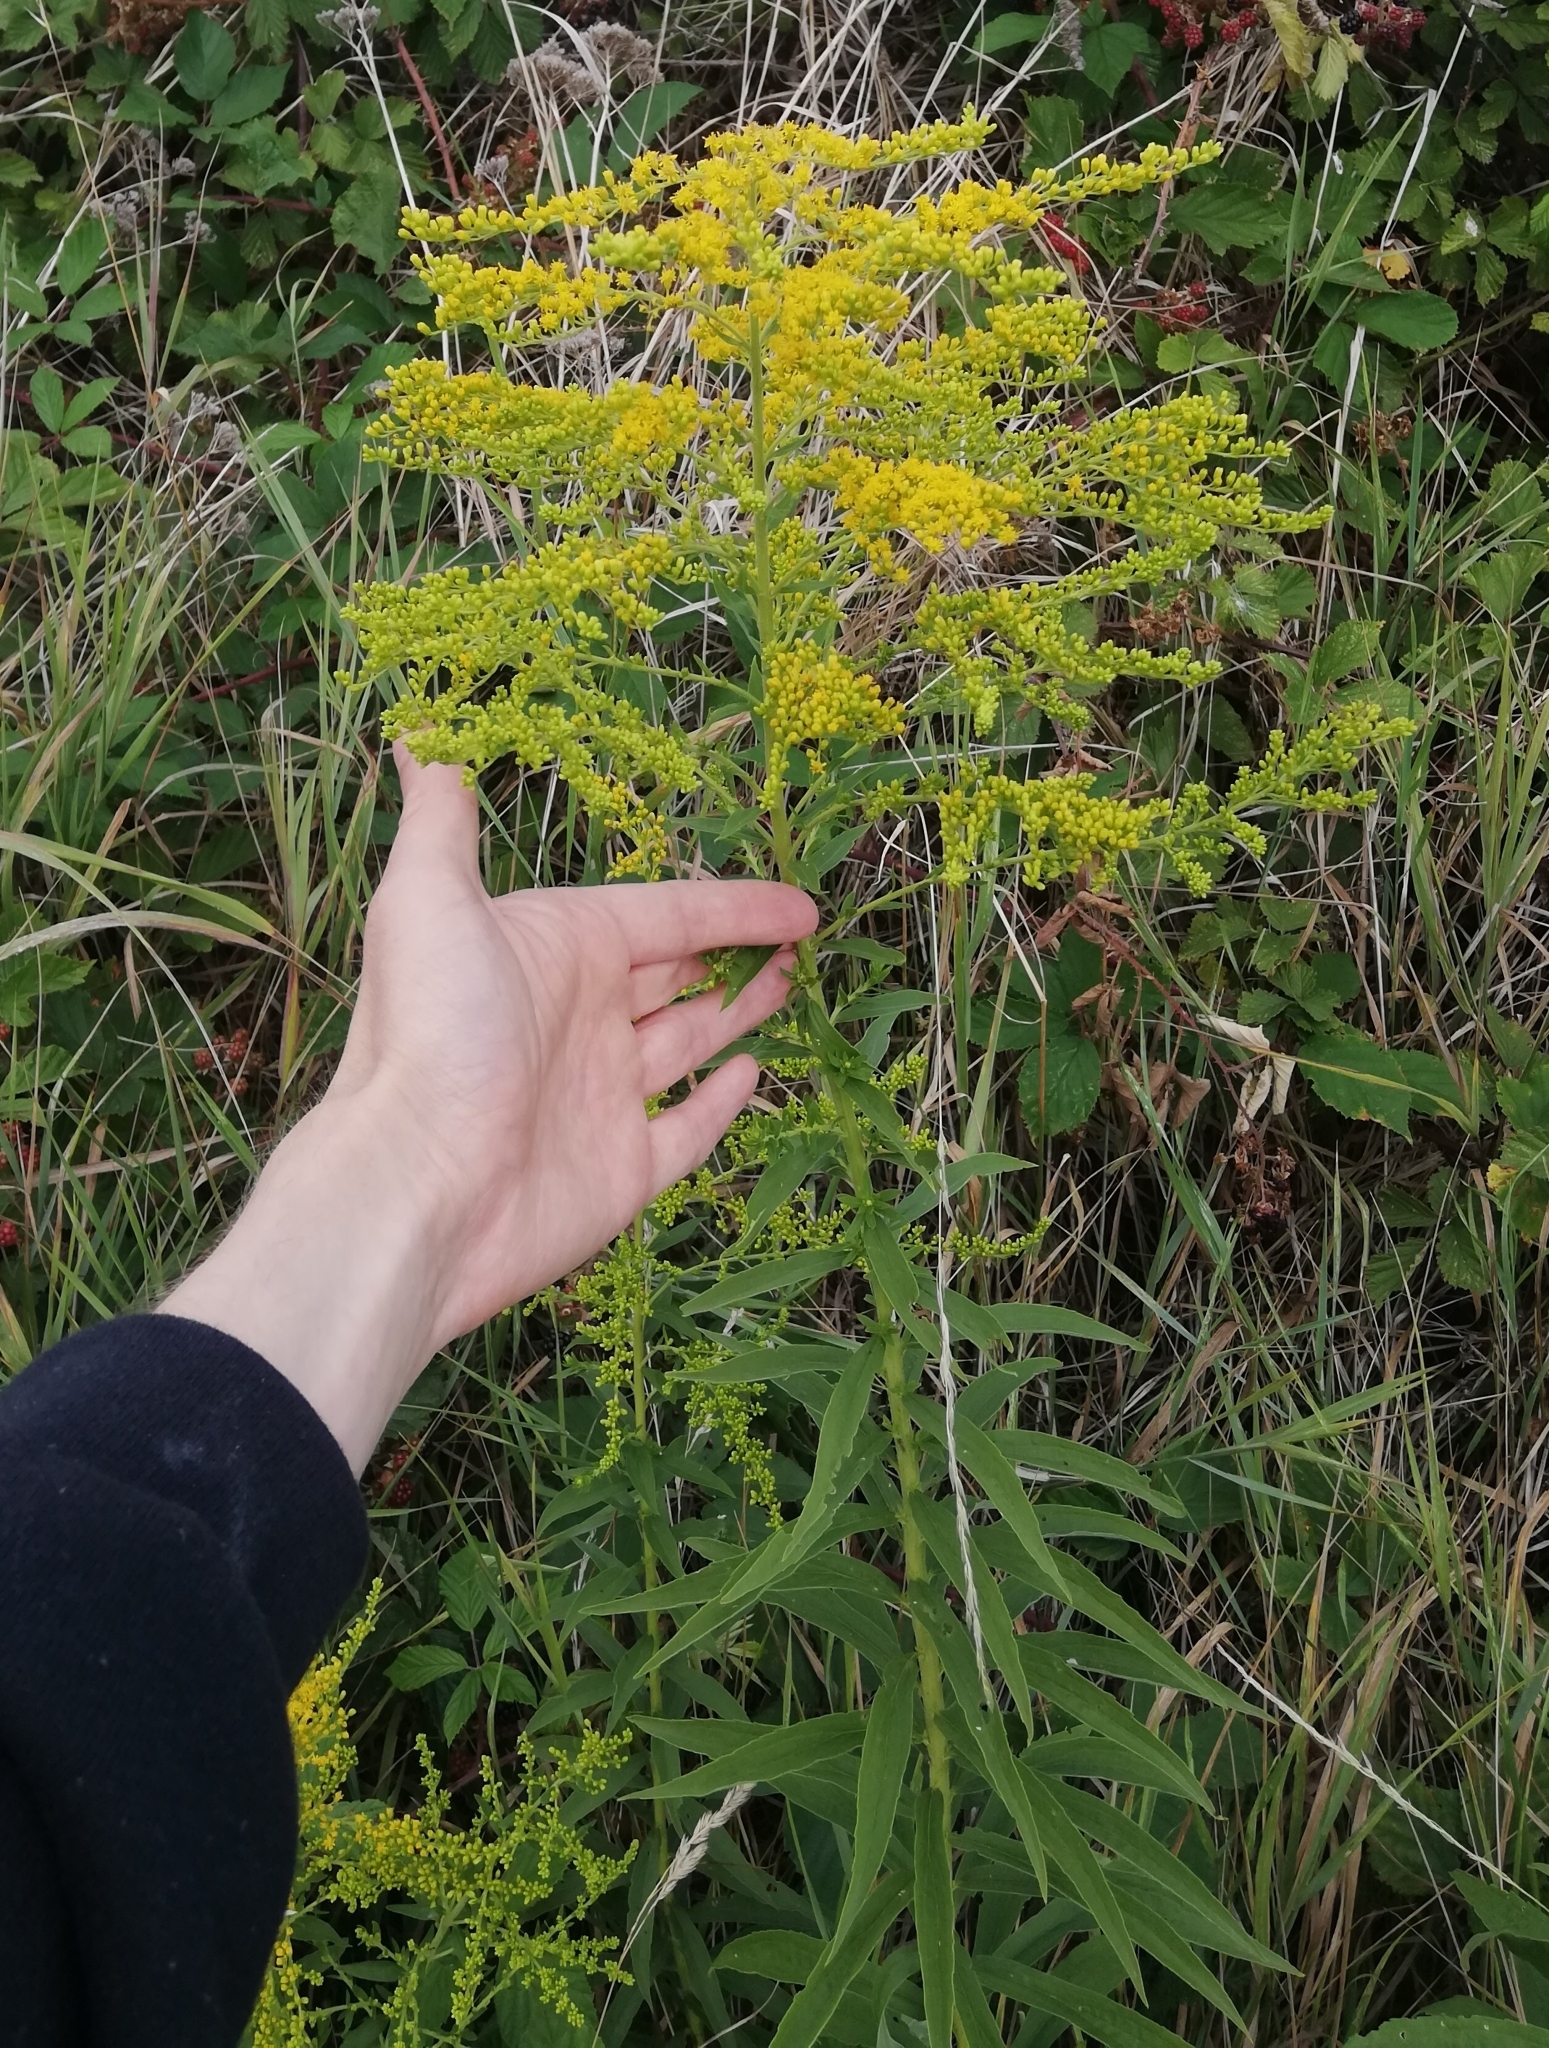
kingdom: Plantae
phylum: Tracheophyta
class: Magnoliopsida
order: Asterales
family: Asteraceae
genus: Solidago
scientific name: Solidago canadensis
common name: Canada goldenrod
